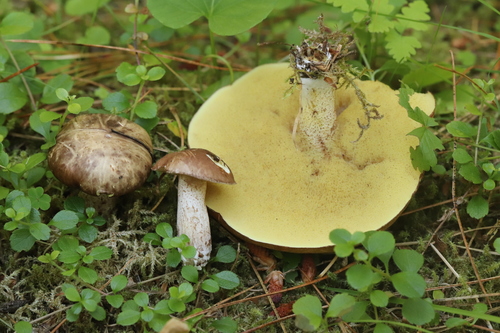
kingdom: Fungi
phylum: Basidiomycota
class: Agaricomycetes
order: Boletales
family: Suillaceae
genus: Suillus
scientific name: Suillus placidus
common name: Slippery white bolete
